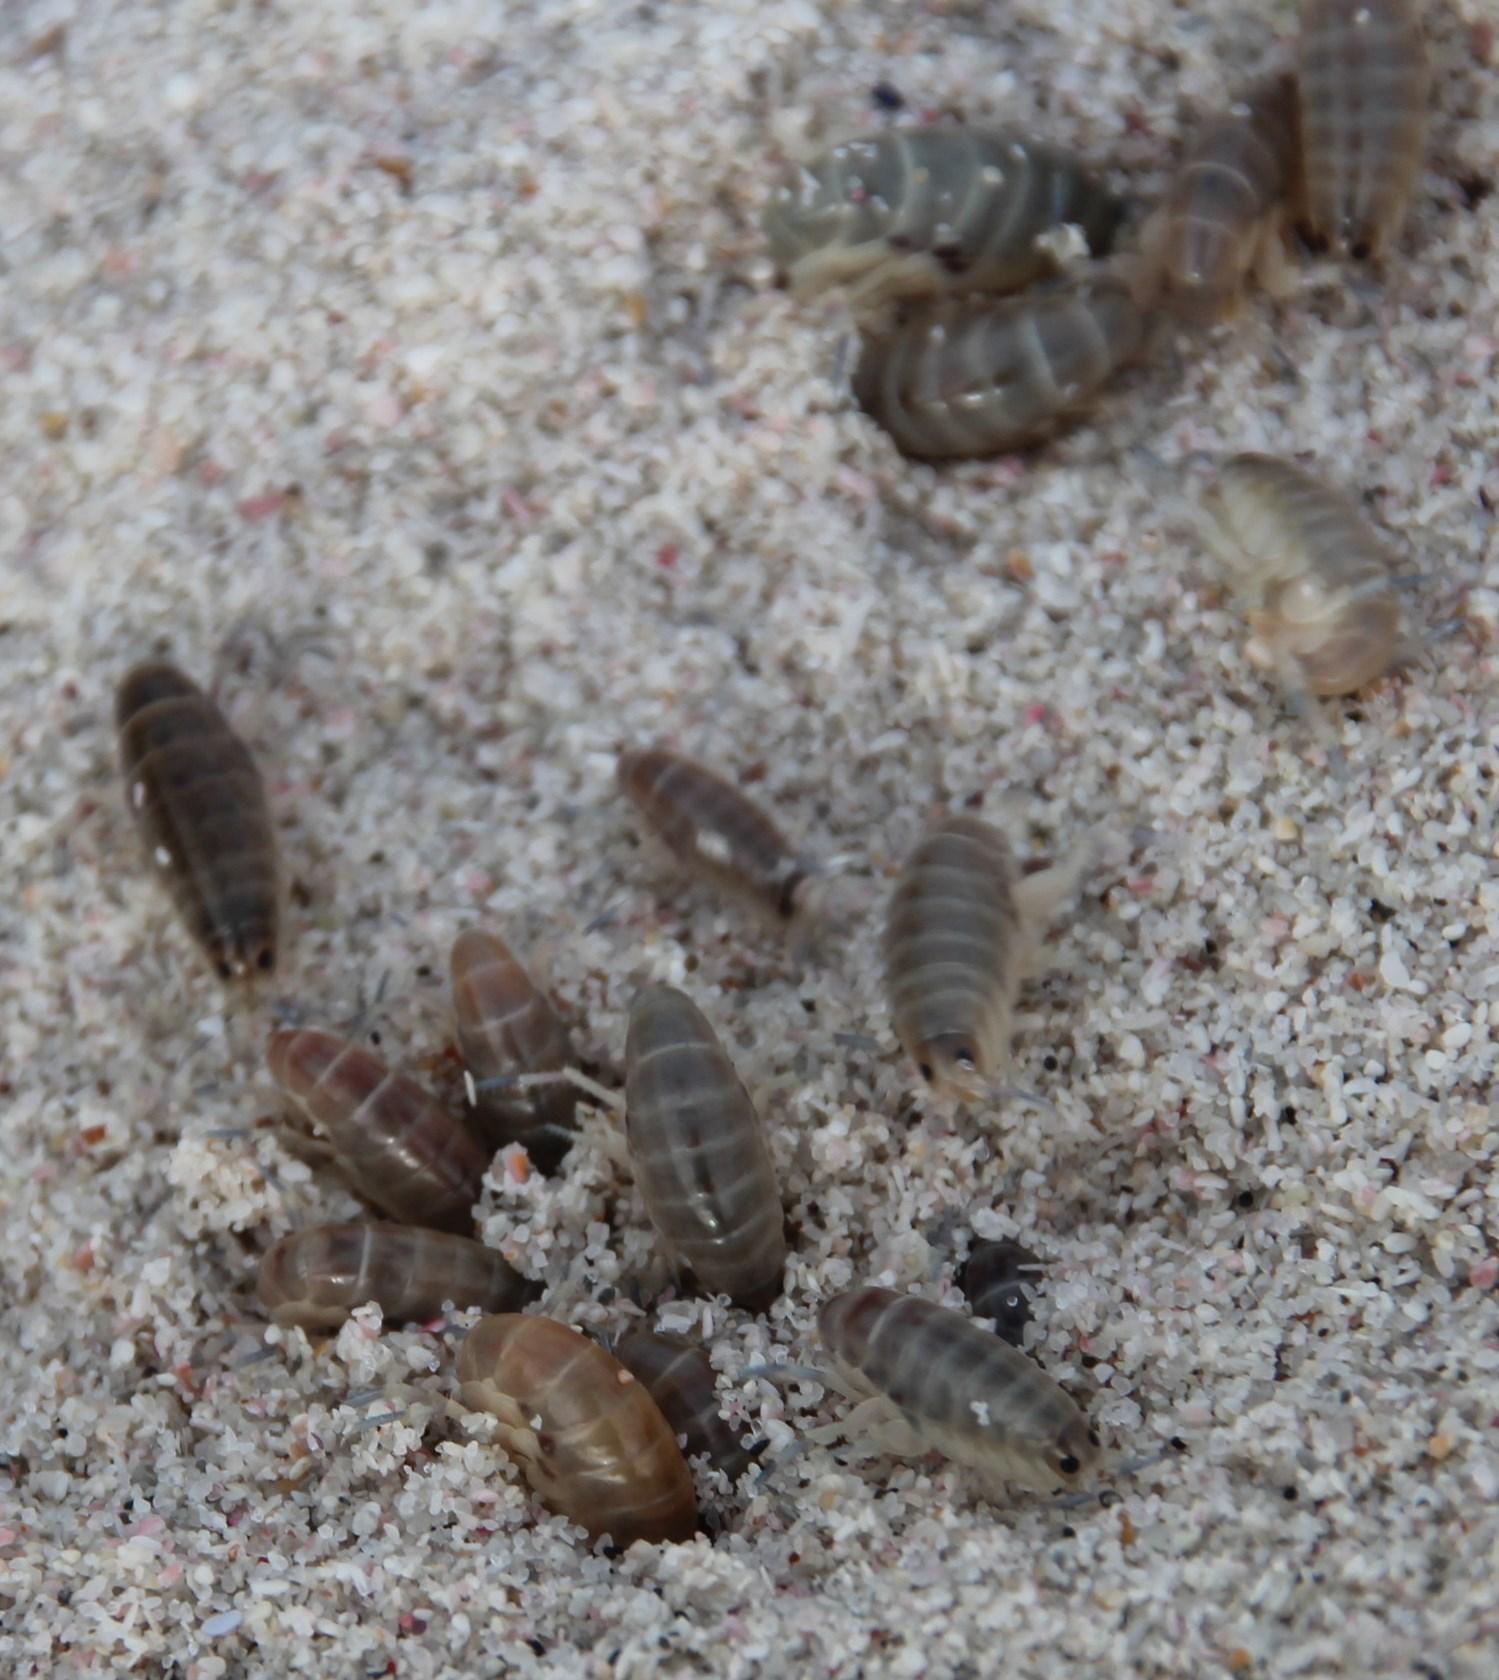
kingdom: Animalia
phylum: Arthropoda
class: Malacostraca
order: Amphipoda
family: Talitridae
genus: Capeorchestia
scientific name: Capeorchestia capensis
